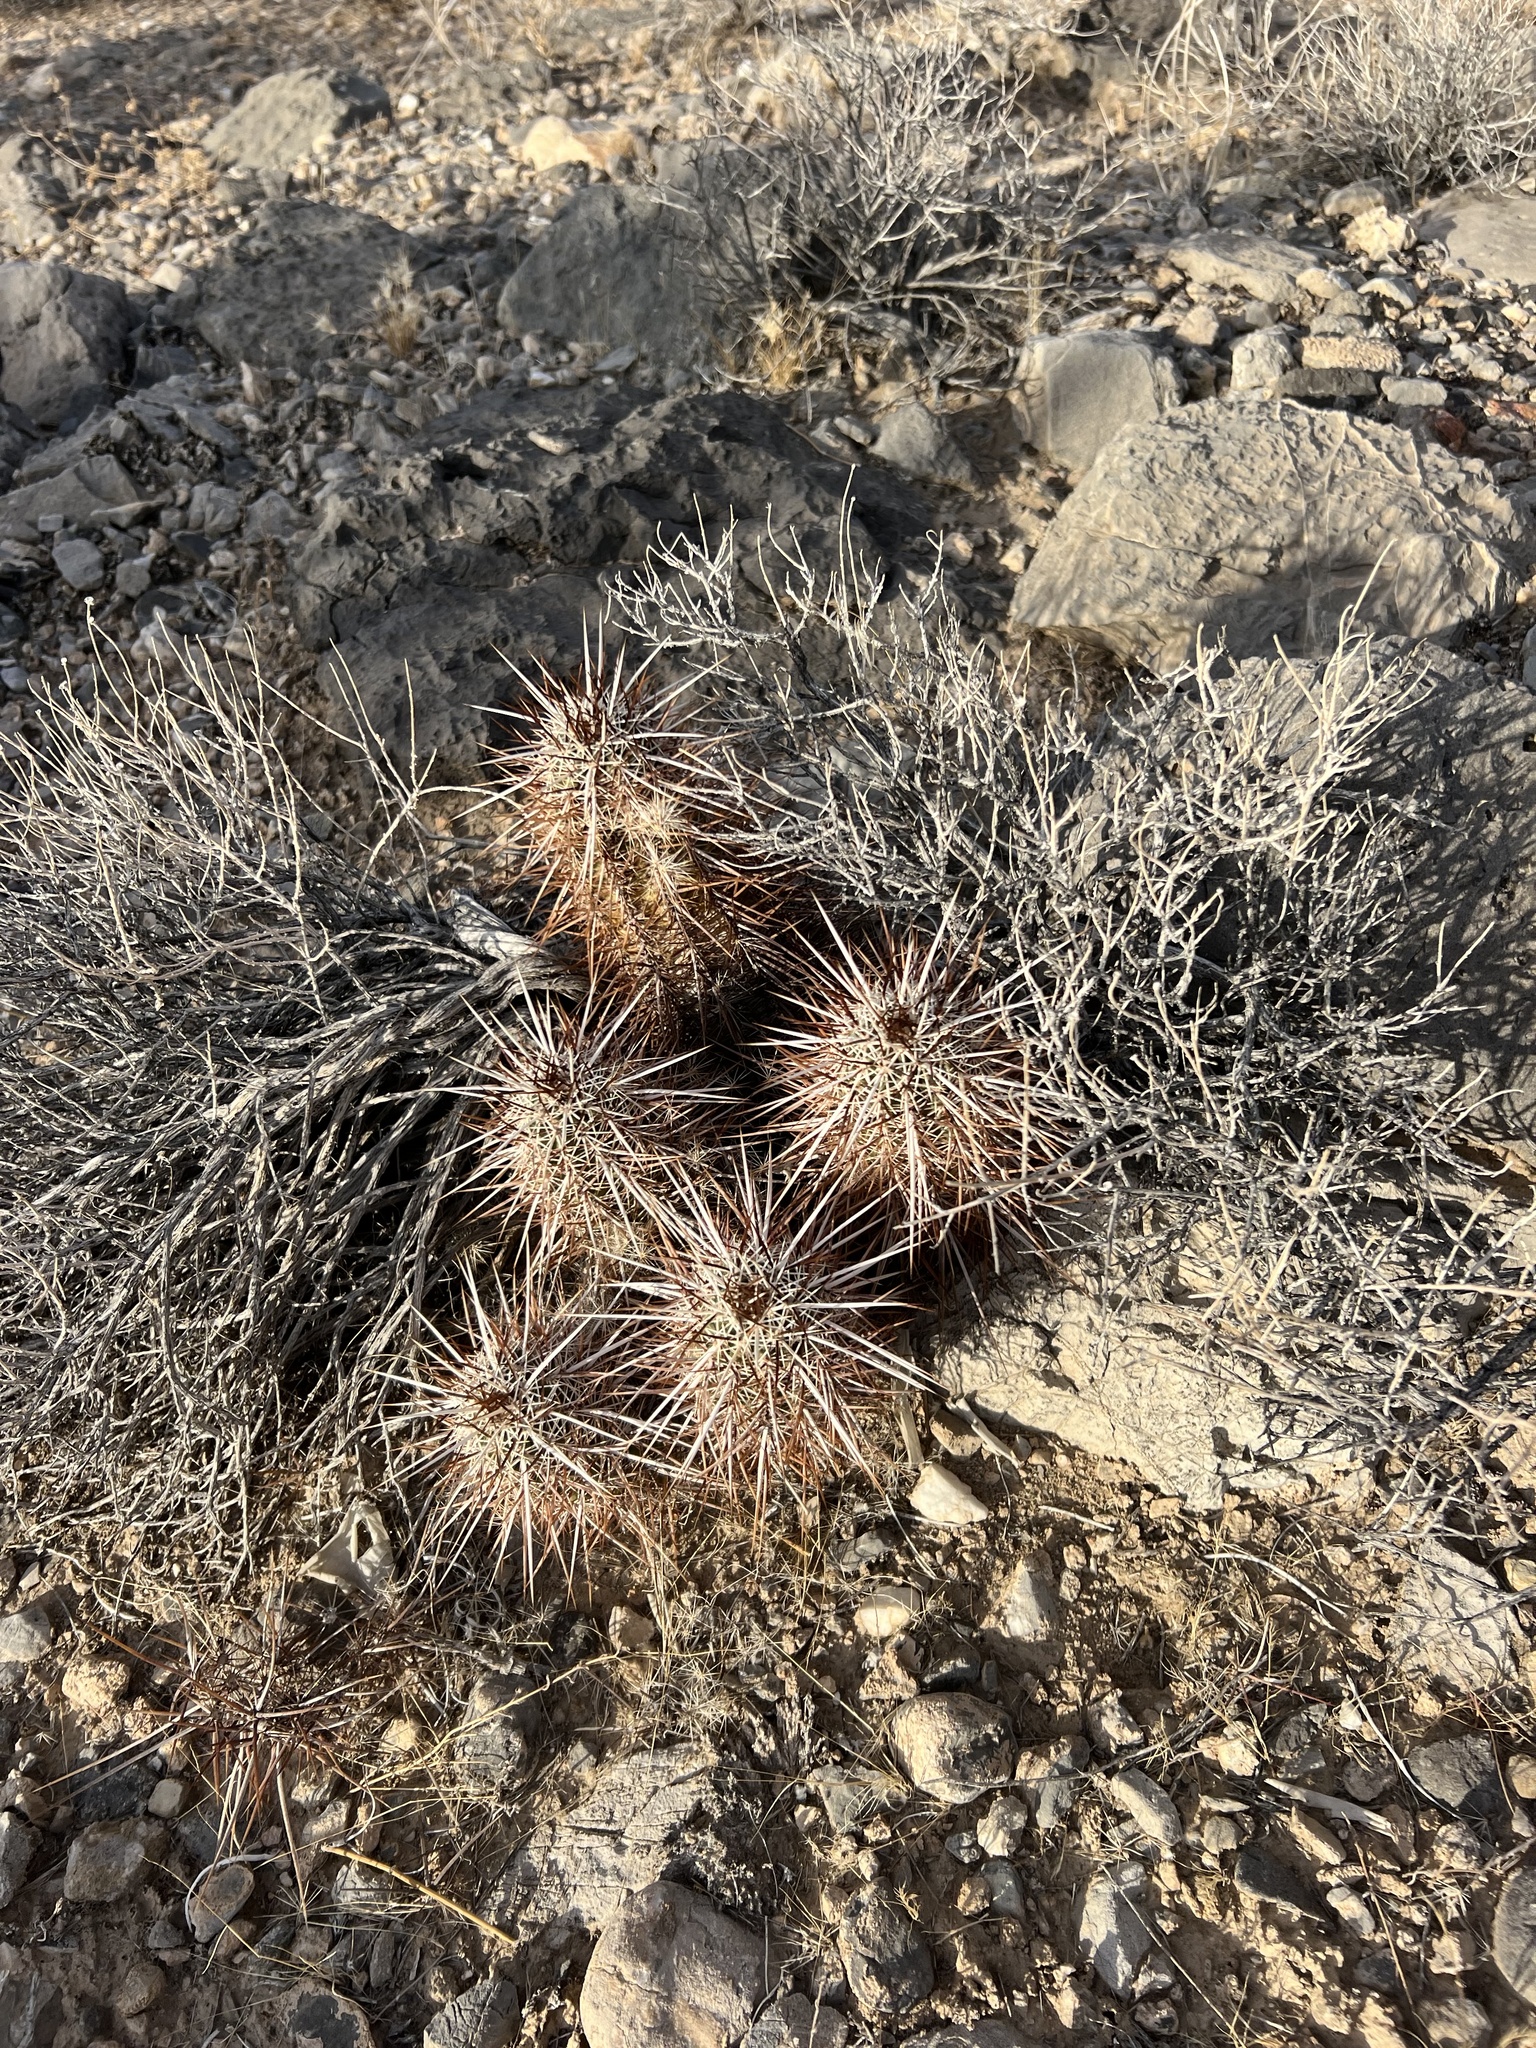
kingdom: Plantae
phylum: Tracheophyta
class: Magnoliopsida
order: Caryophyllales
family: Cactaceae
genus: Echinocereus
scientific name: Echinocereus engelmannii
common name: Engelmann's hedgehog cactus
